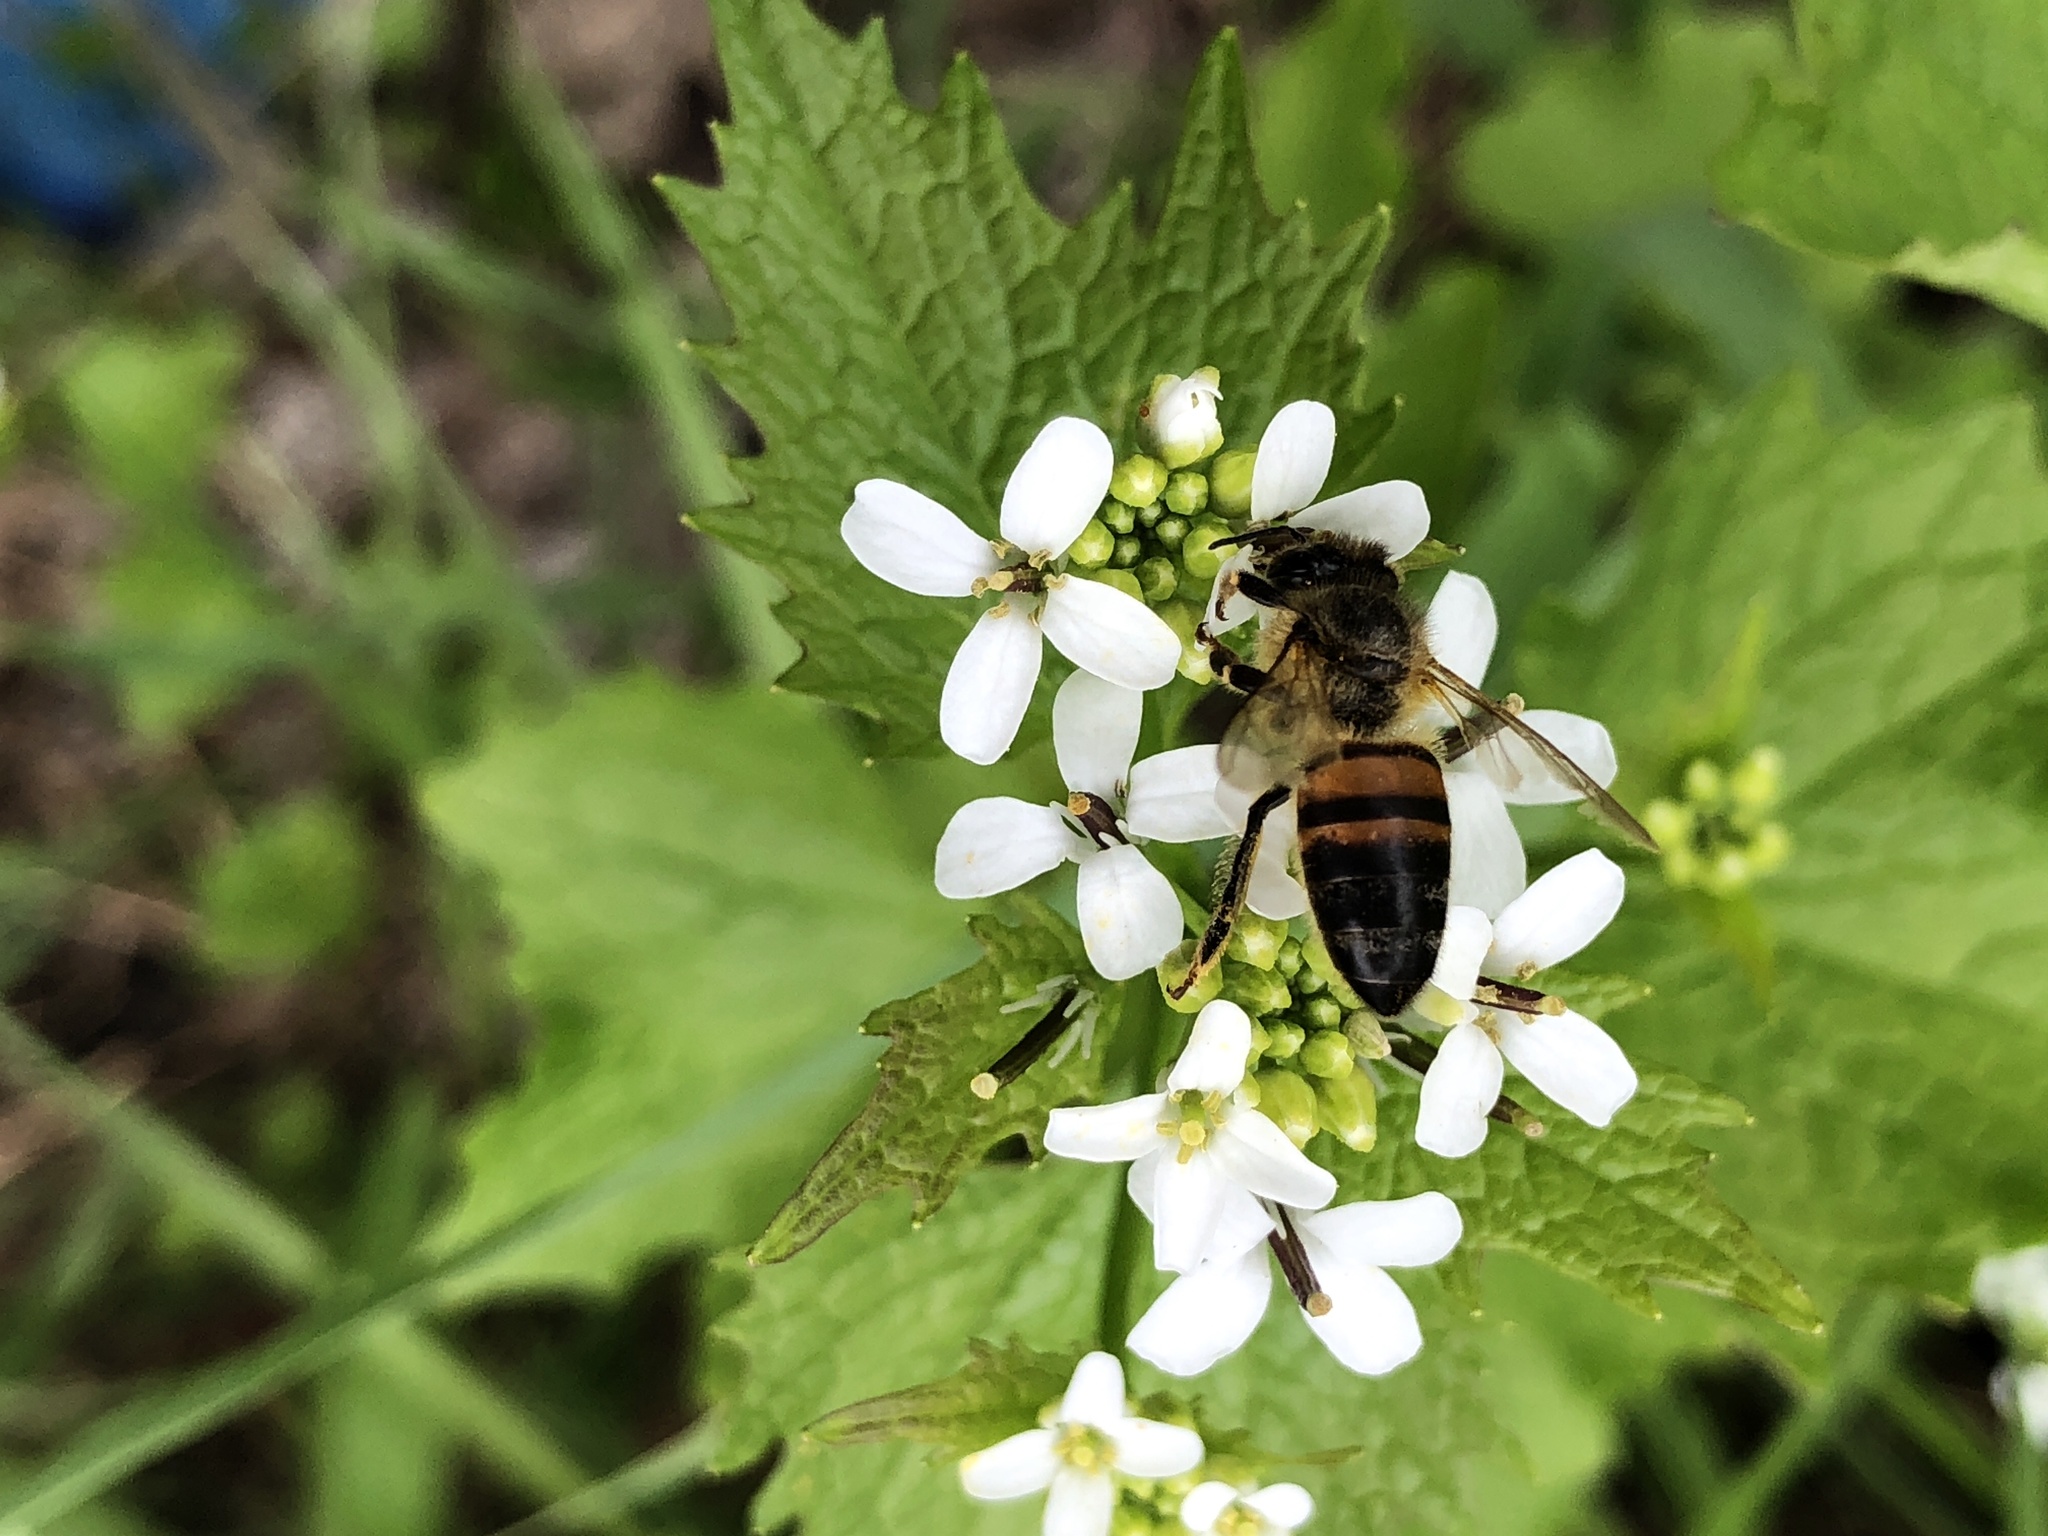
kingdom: Animalia
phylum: Arthropoda
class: Insecta
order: Hymenoptera
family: Apidae
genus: Apis
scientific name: Apis mellifera
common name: Honey bee
